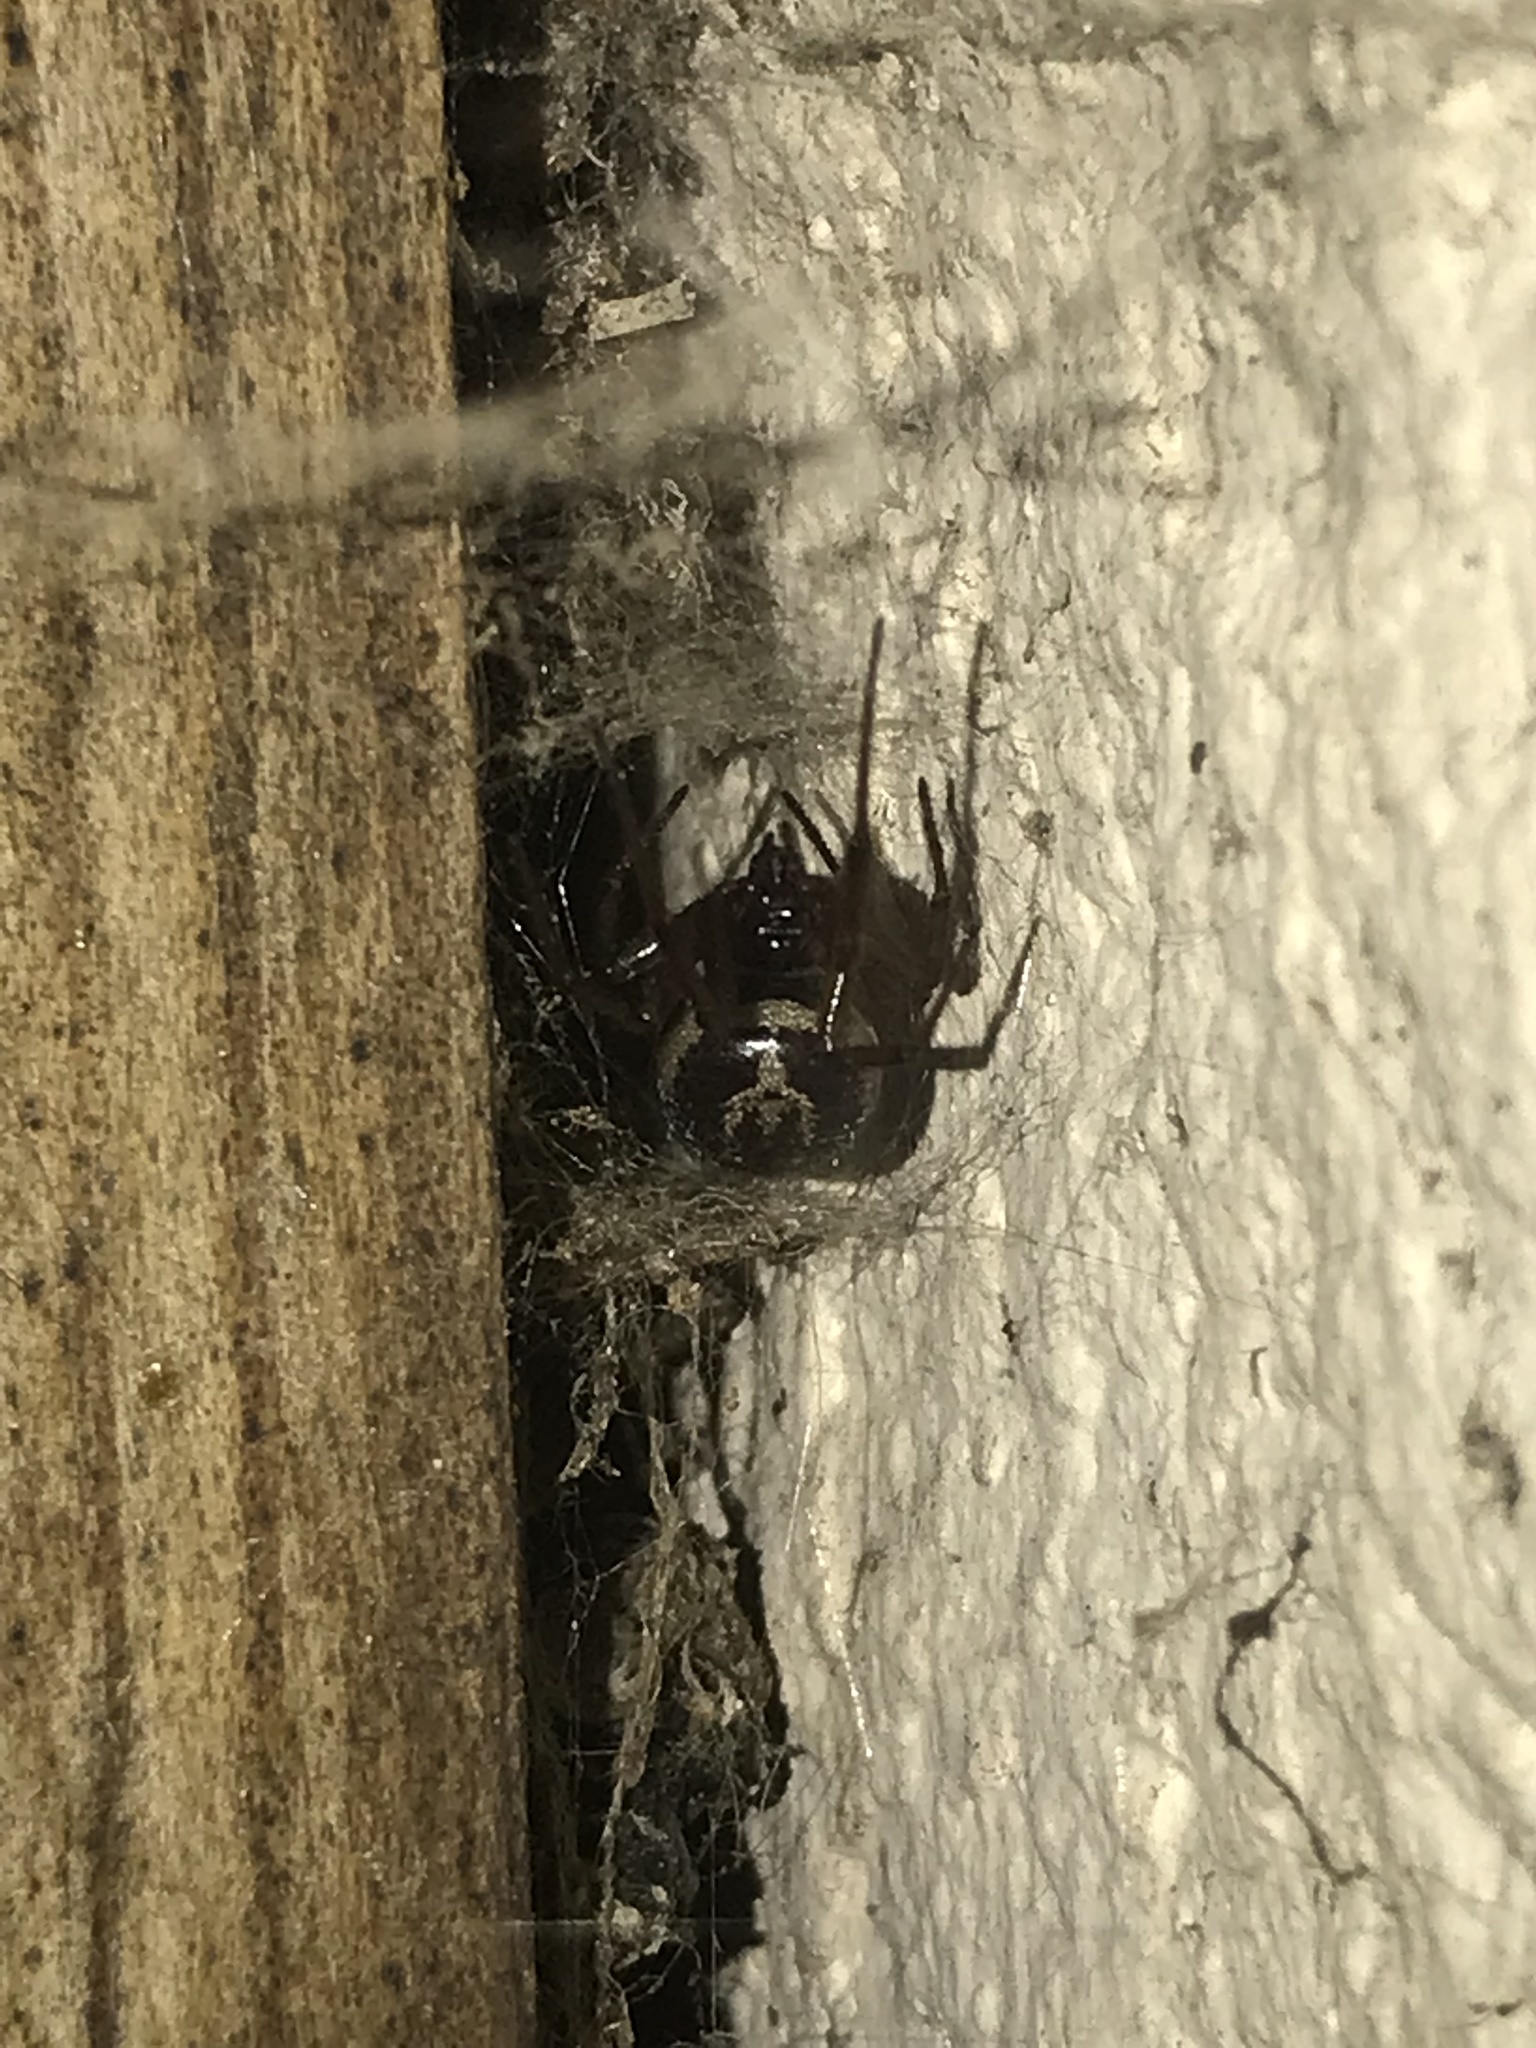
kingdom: Animalia
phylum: Arthropoda
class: Arachnida
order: Araneae
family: Theridiidae
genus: Steatoda
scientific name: Steatoda nobilis
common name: Cobweb weaver
